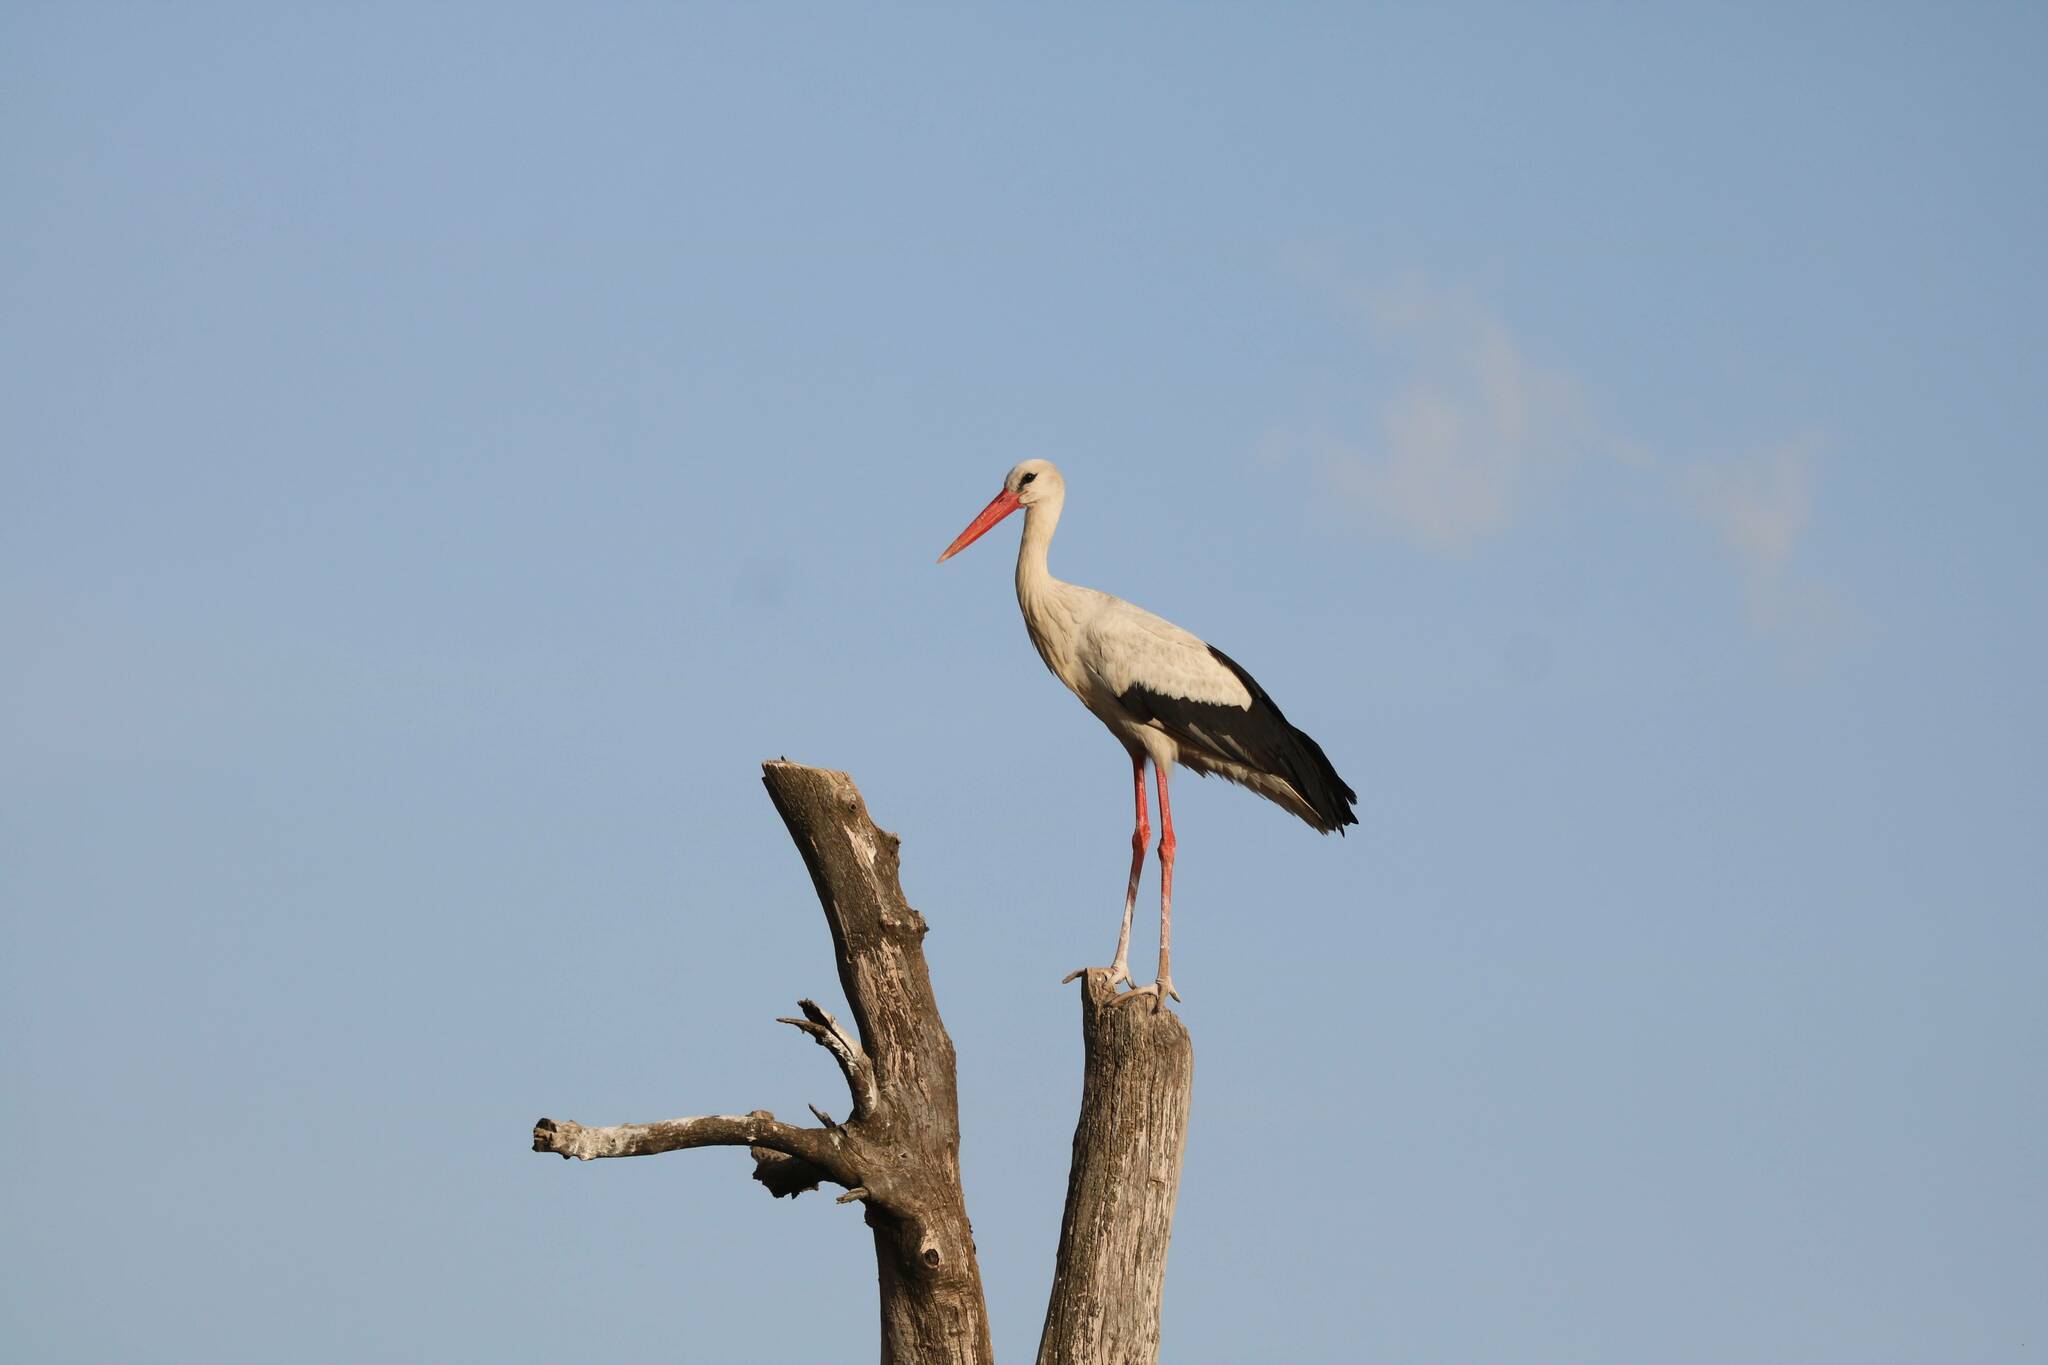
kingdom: Animalia
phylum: Chordata
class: Aves
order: Ciconiiformes
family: Ciconiidae
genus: Ciconia
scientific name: Ciconia ciconia
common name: White stork
